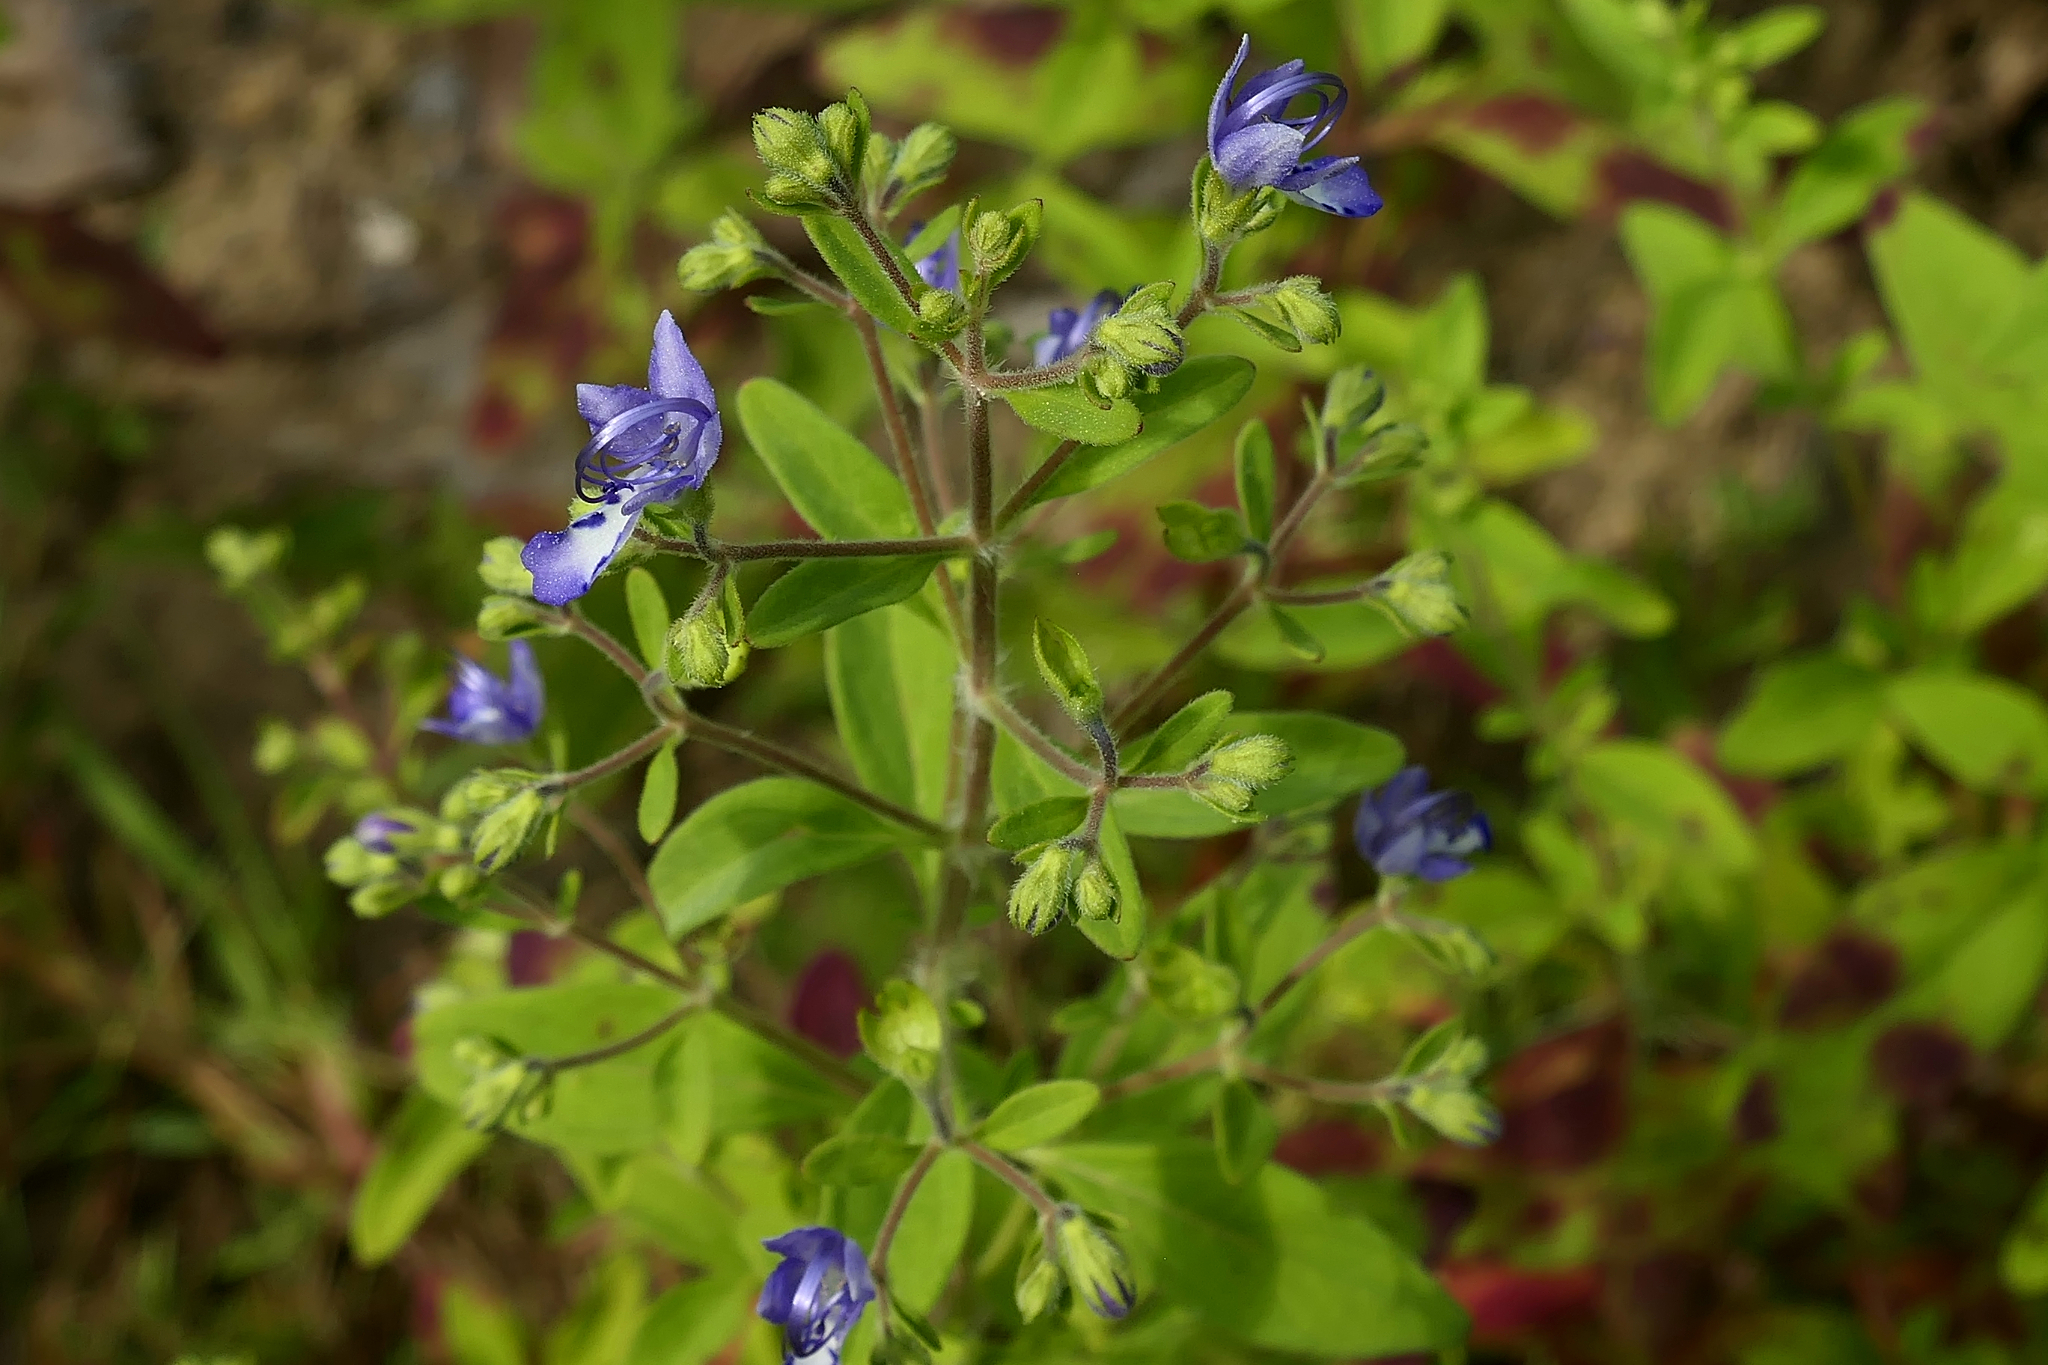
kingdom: Plantae
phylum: Tracheophyta
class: Magnoliopsida
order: Lamiales
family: Lamiaceae
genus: Trichostema
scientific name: Trichostema dichotomum
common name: Bastard pennyroyal
